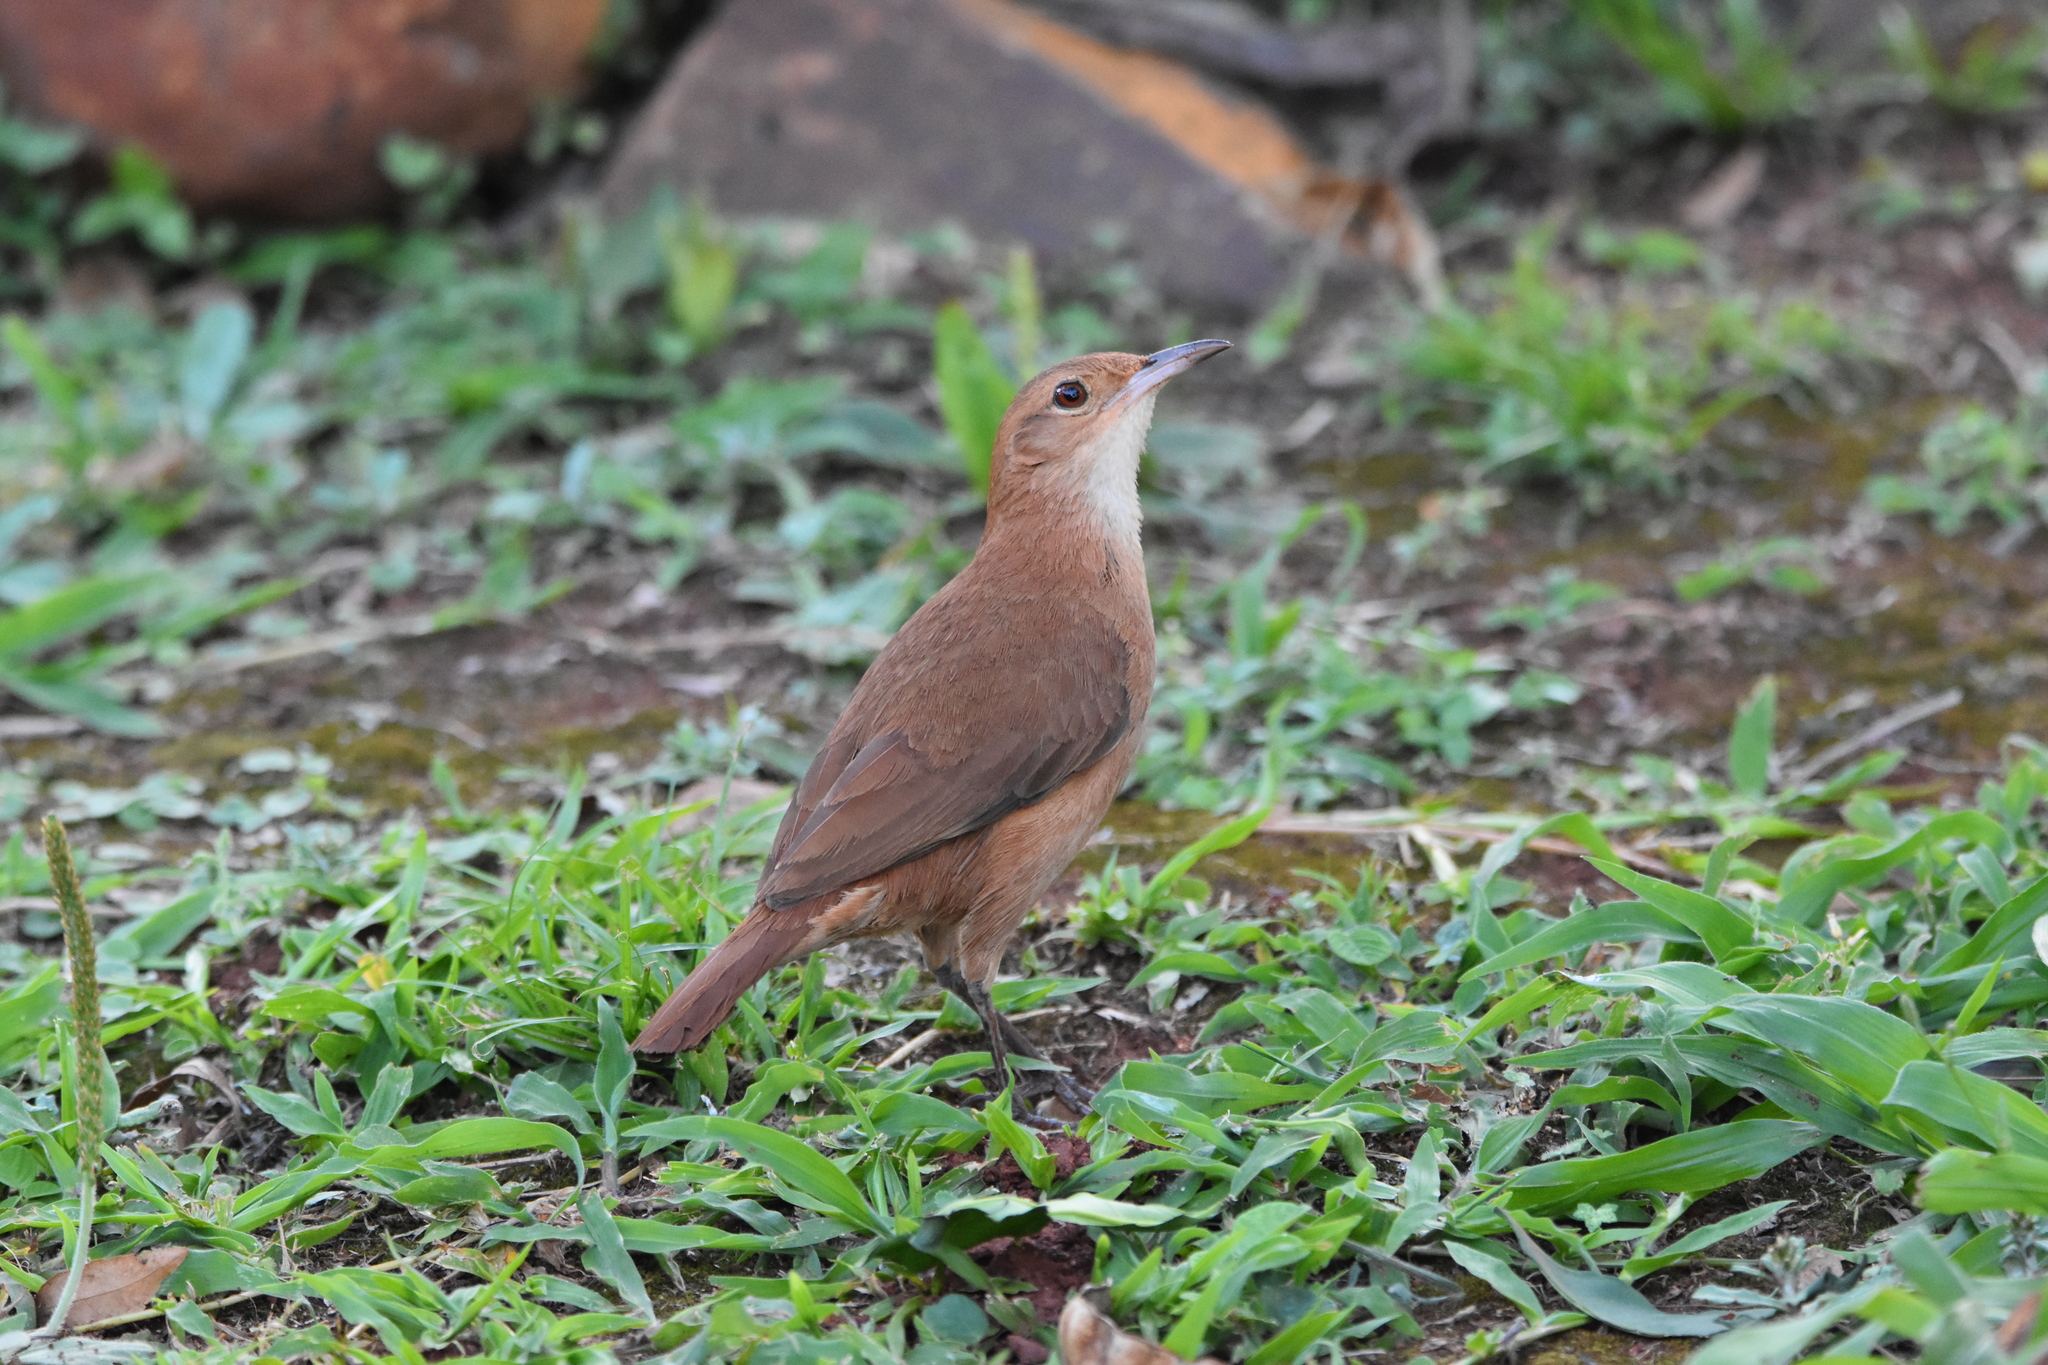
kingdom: Animalia
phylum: Chordata
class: Aves
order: Passeriformes
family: Furnariidae
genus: Furnarius
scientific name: Furnarius rufus
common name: Rufous hornero
